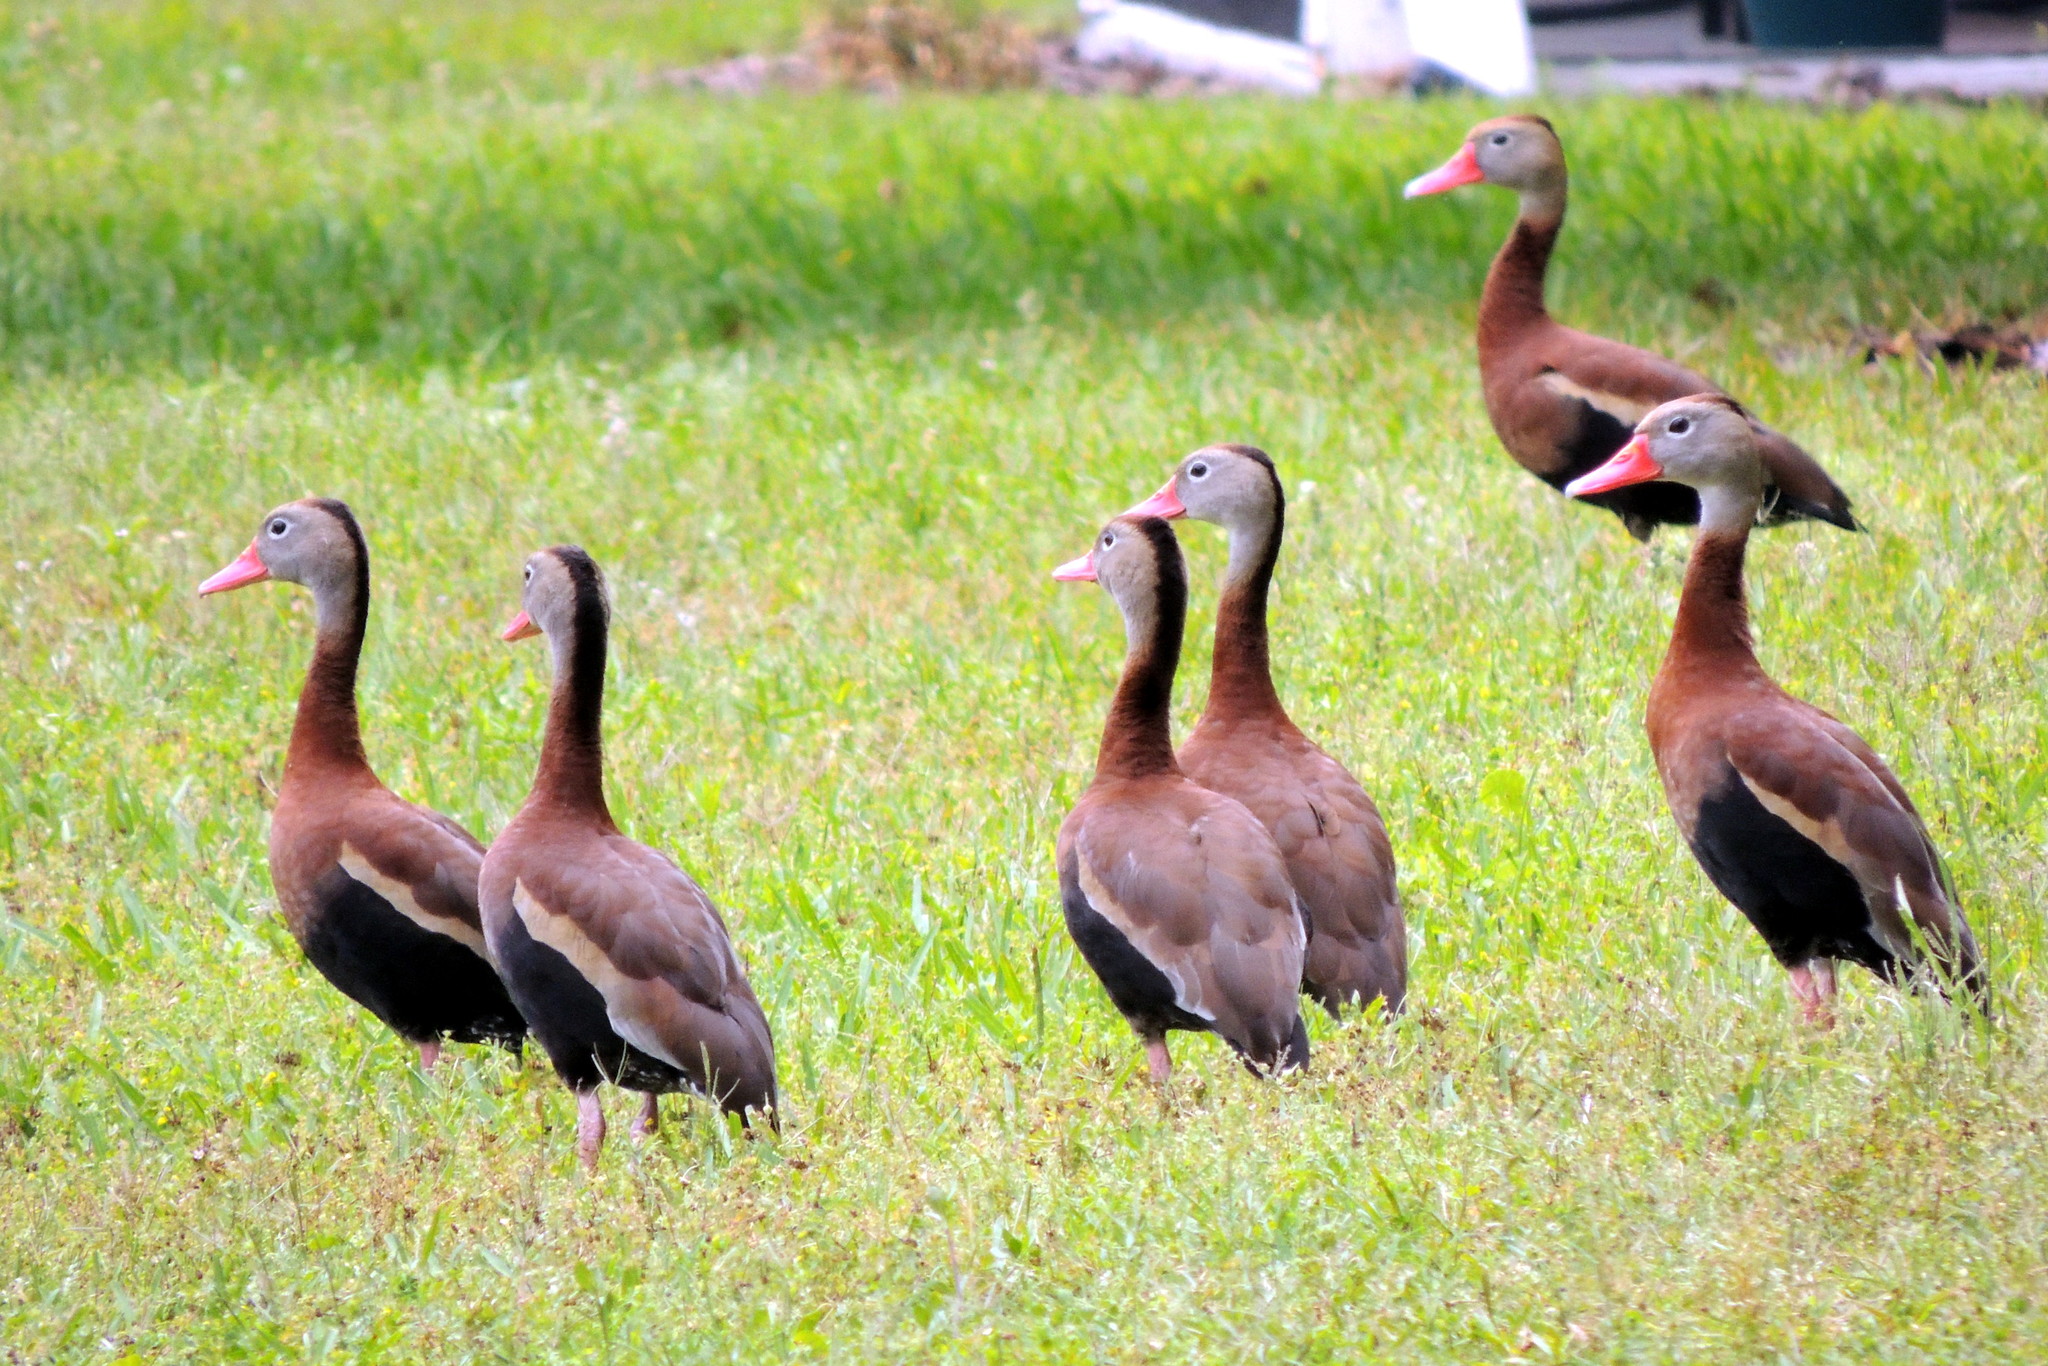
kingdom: Animalia
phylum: Chordata
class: Aves
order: Anseriformes
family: Anatidae
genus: Dendrocygna
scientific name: Dendrocygna autumnalis
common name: Black-bellied whistling duck
